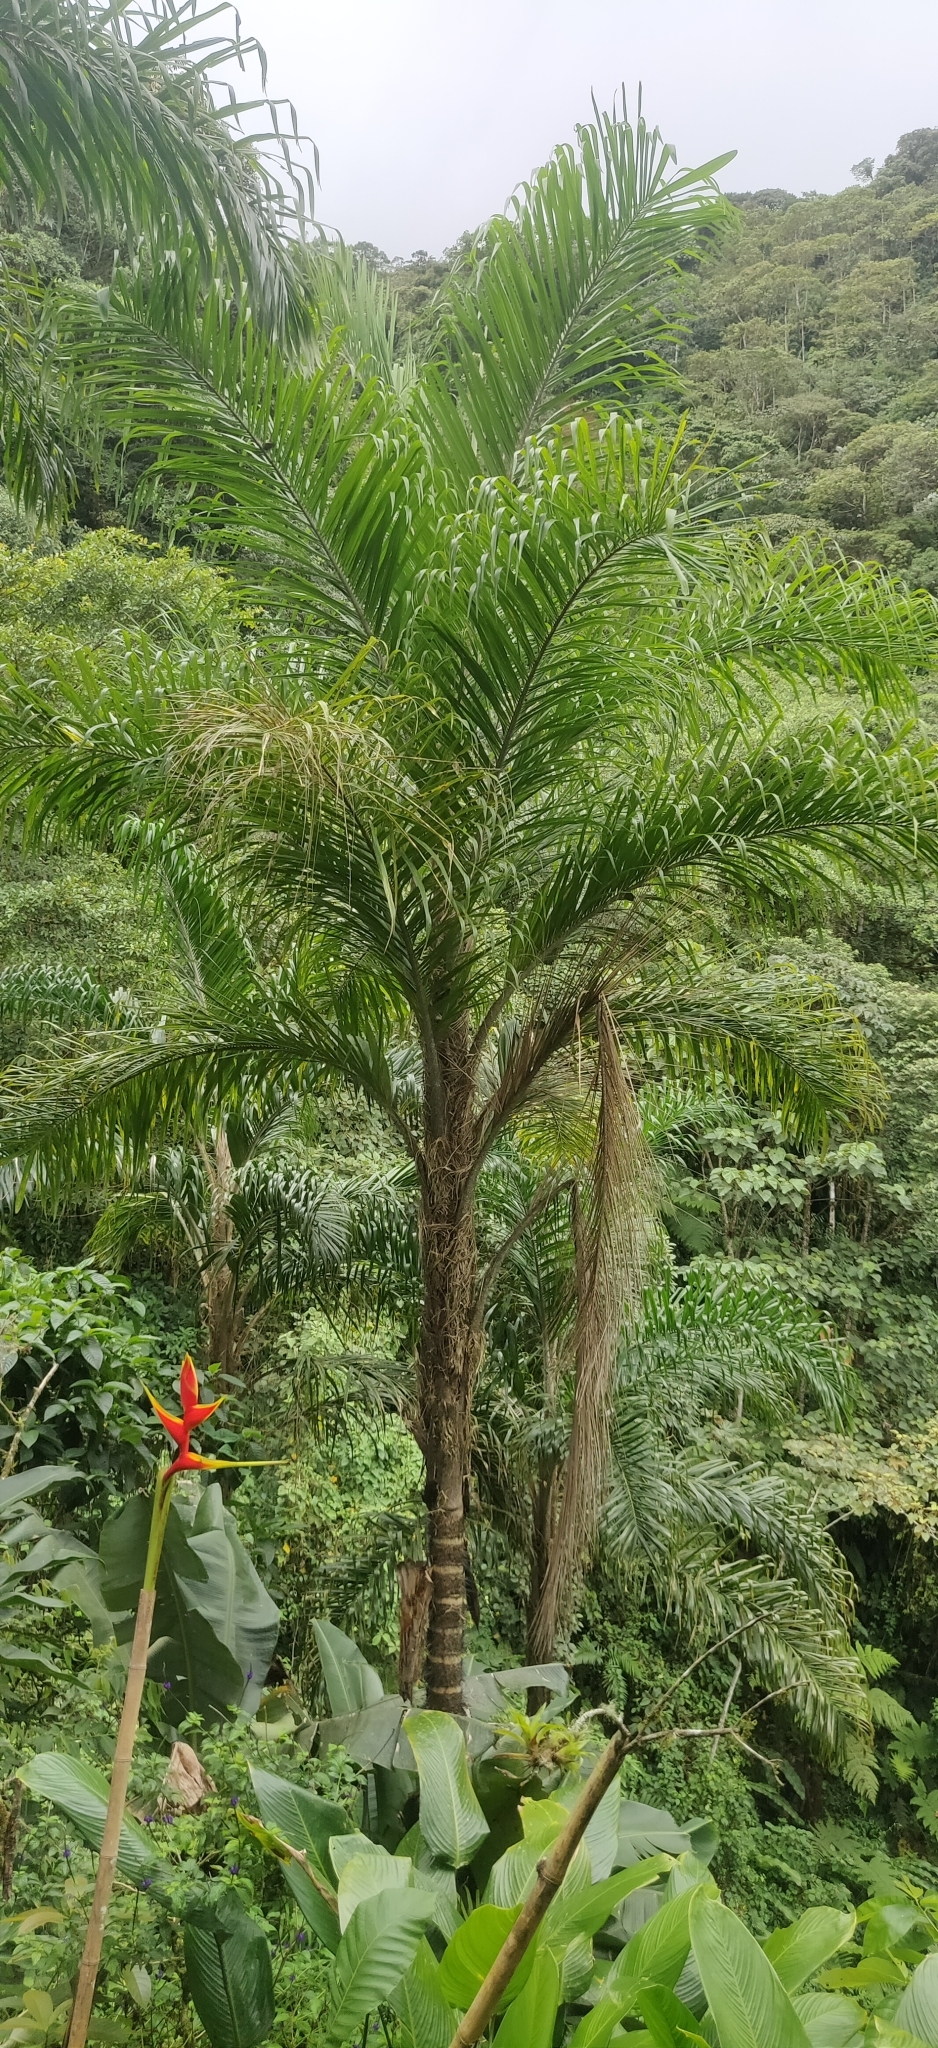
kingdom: Plantae
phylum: Tracheophyta
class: Liliopsida
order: Arecales
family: Arecaceae
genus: Bactris
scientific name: Bactris gasipaes
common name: Peach palm
